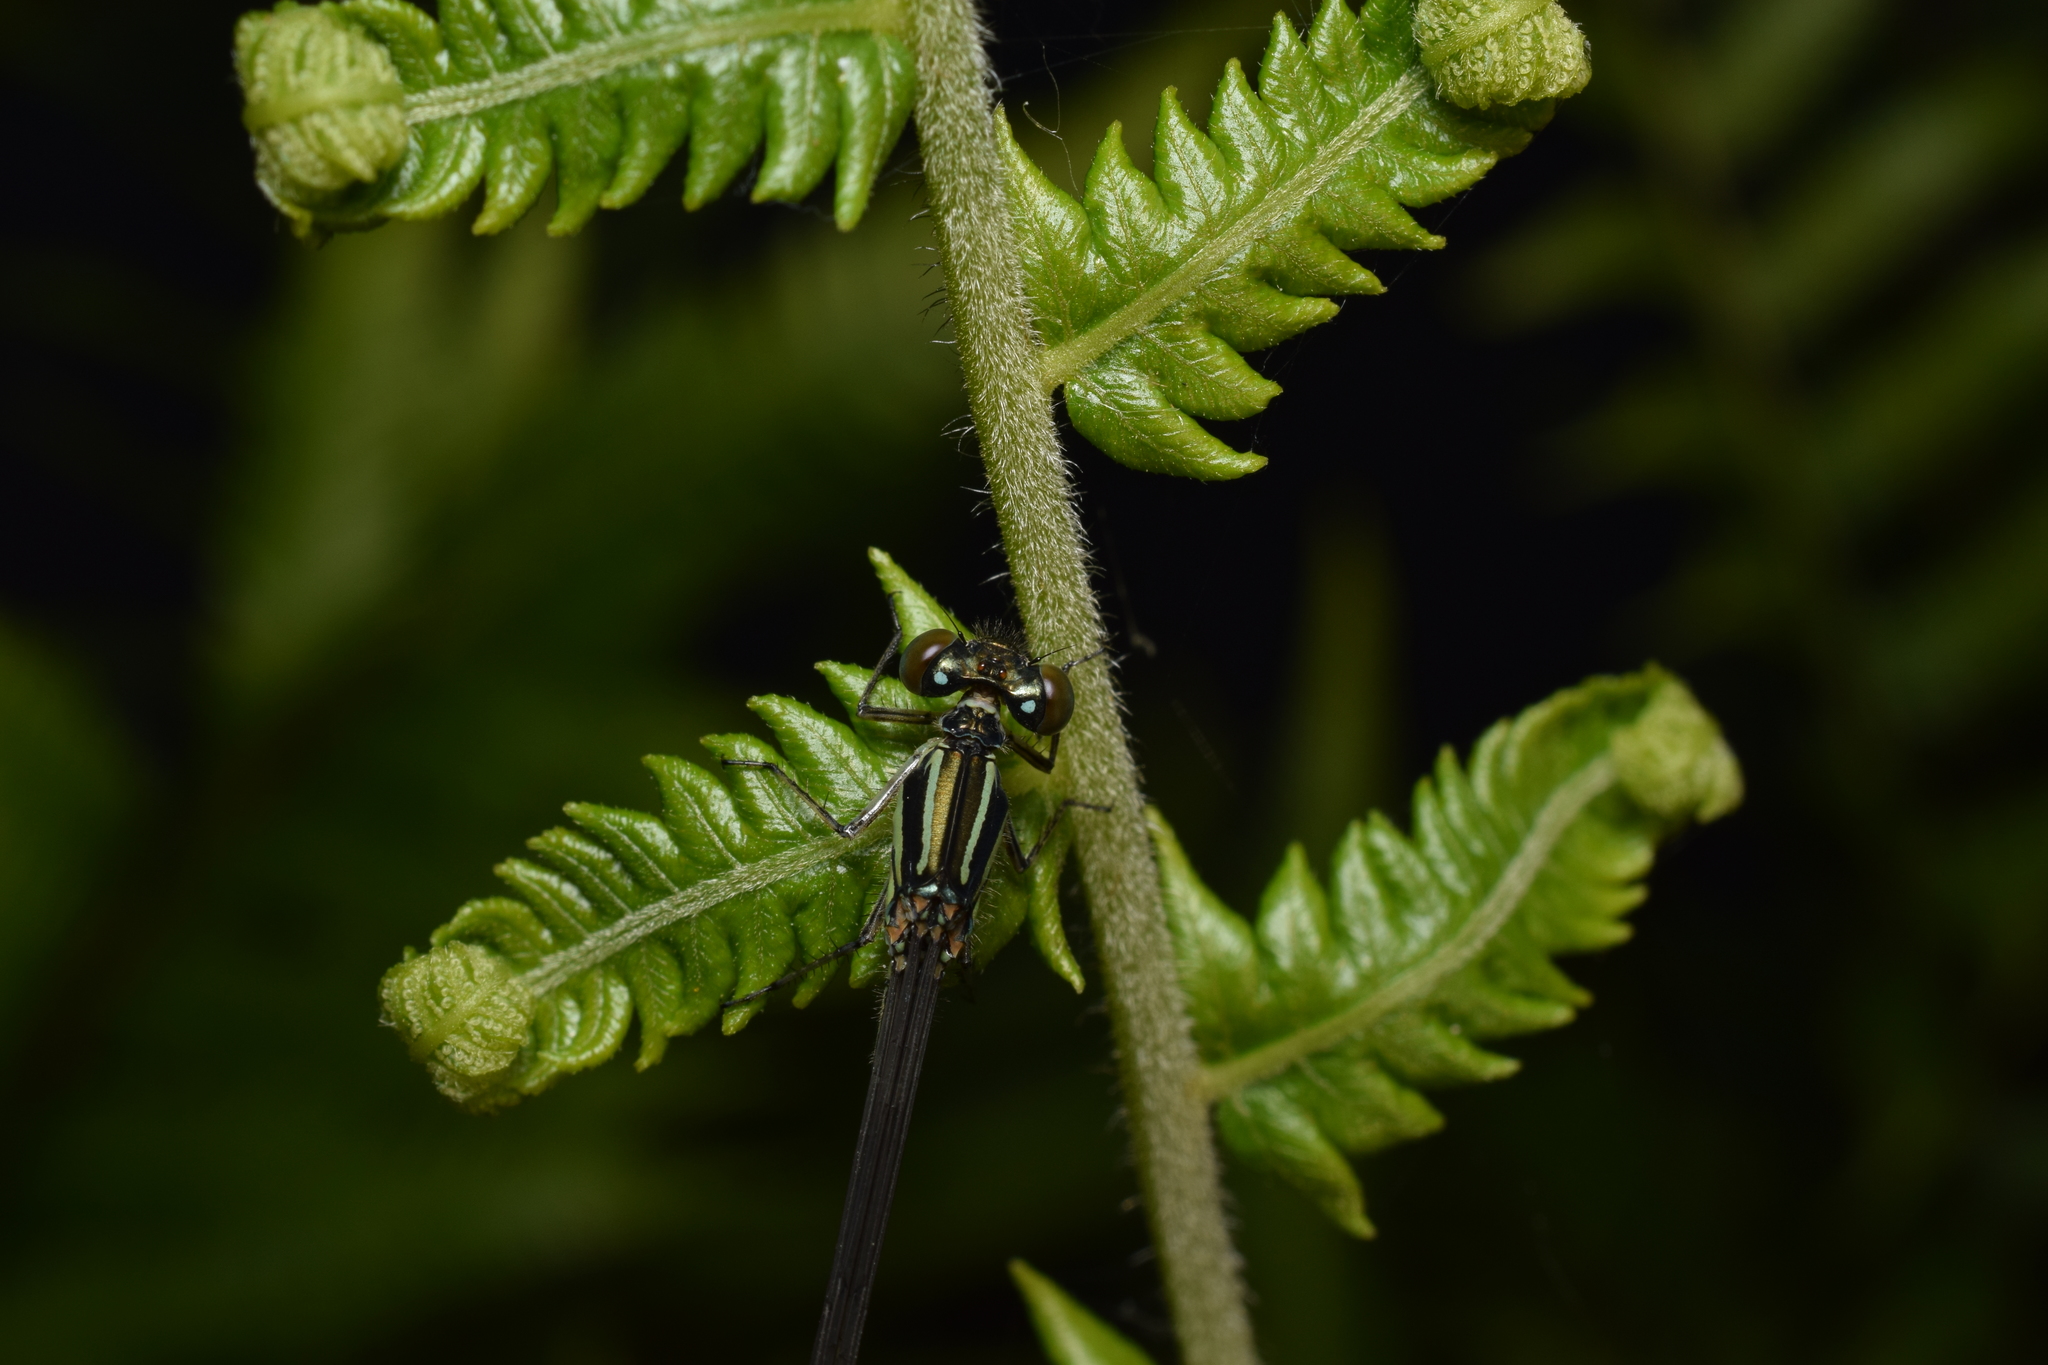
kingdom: Animalia
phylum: Arthropoda
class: Insecta
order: Odonata
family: Coenagrionidae
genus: Paracercion
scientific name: Paracercion calamorum
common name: Dusky lilysquatter
